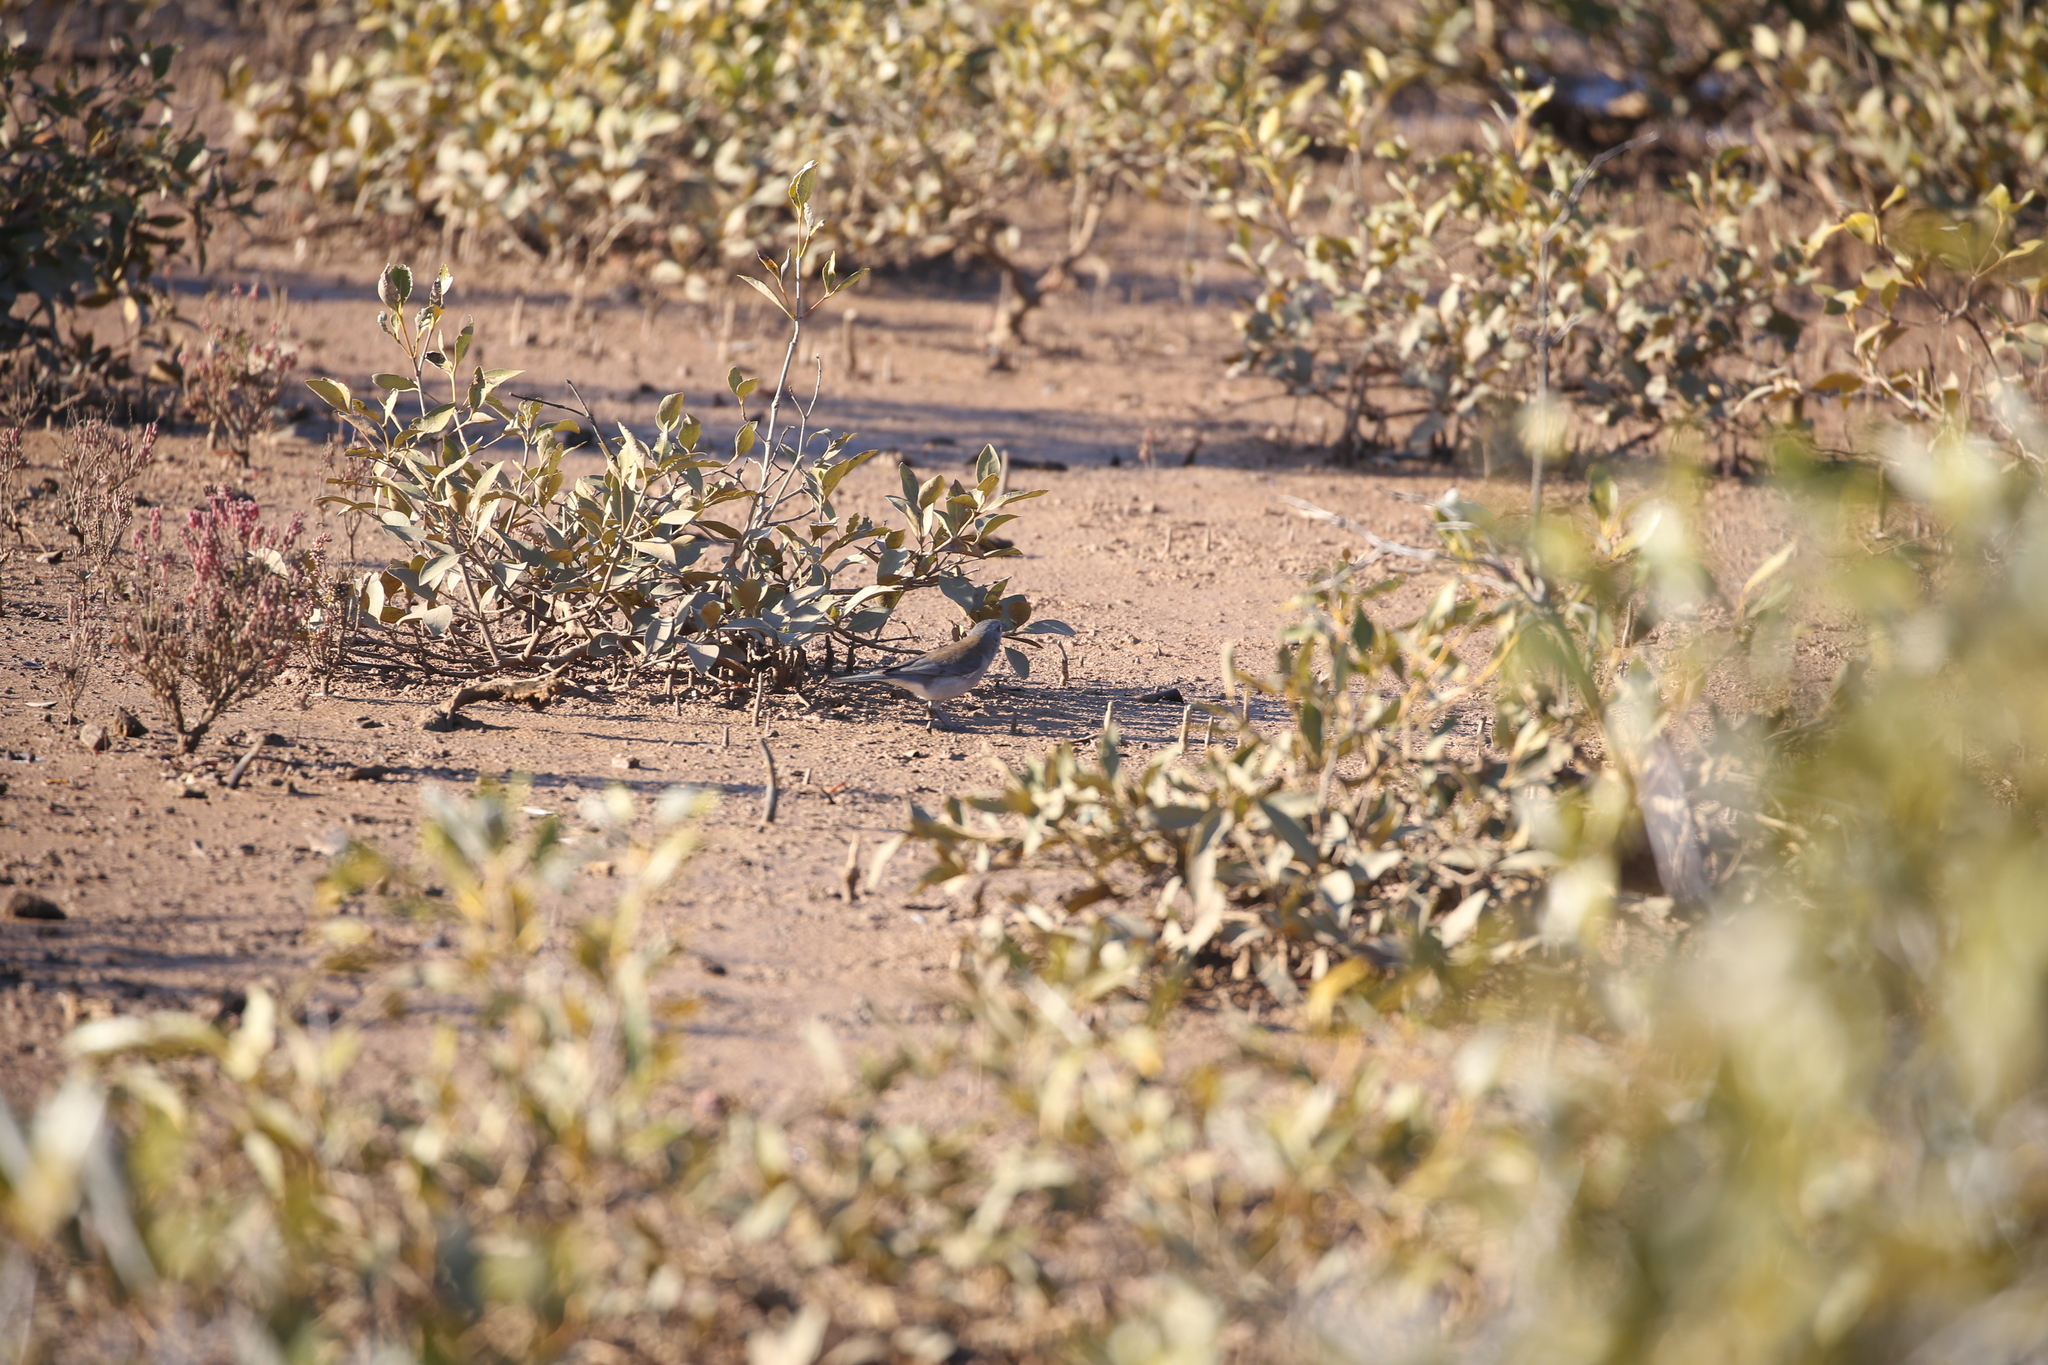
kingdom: Animalia
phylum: Chordata
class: Aves
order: Passeriformes
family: Pachycephalidae
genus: Colluricincla
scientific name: Colluricincla harmonica
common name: Grey shrikethrush
